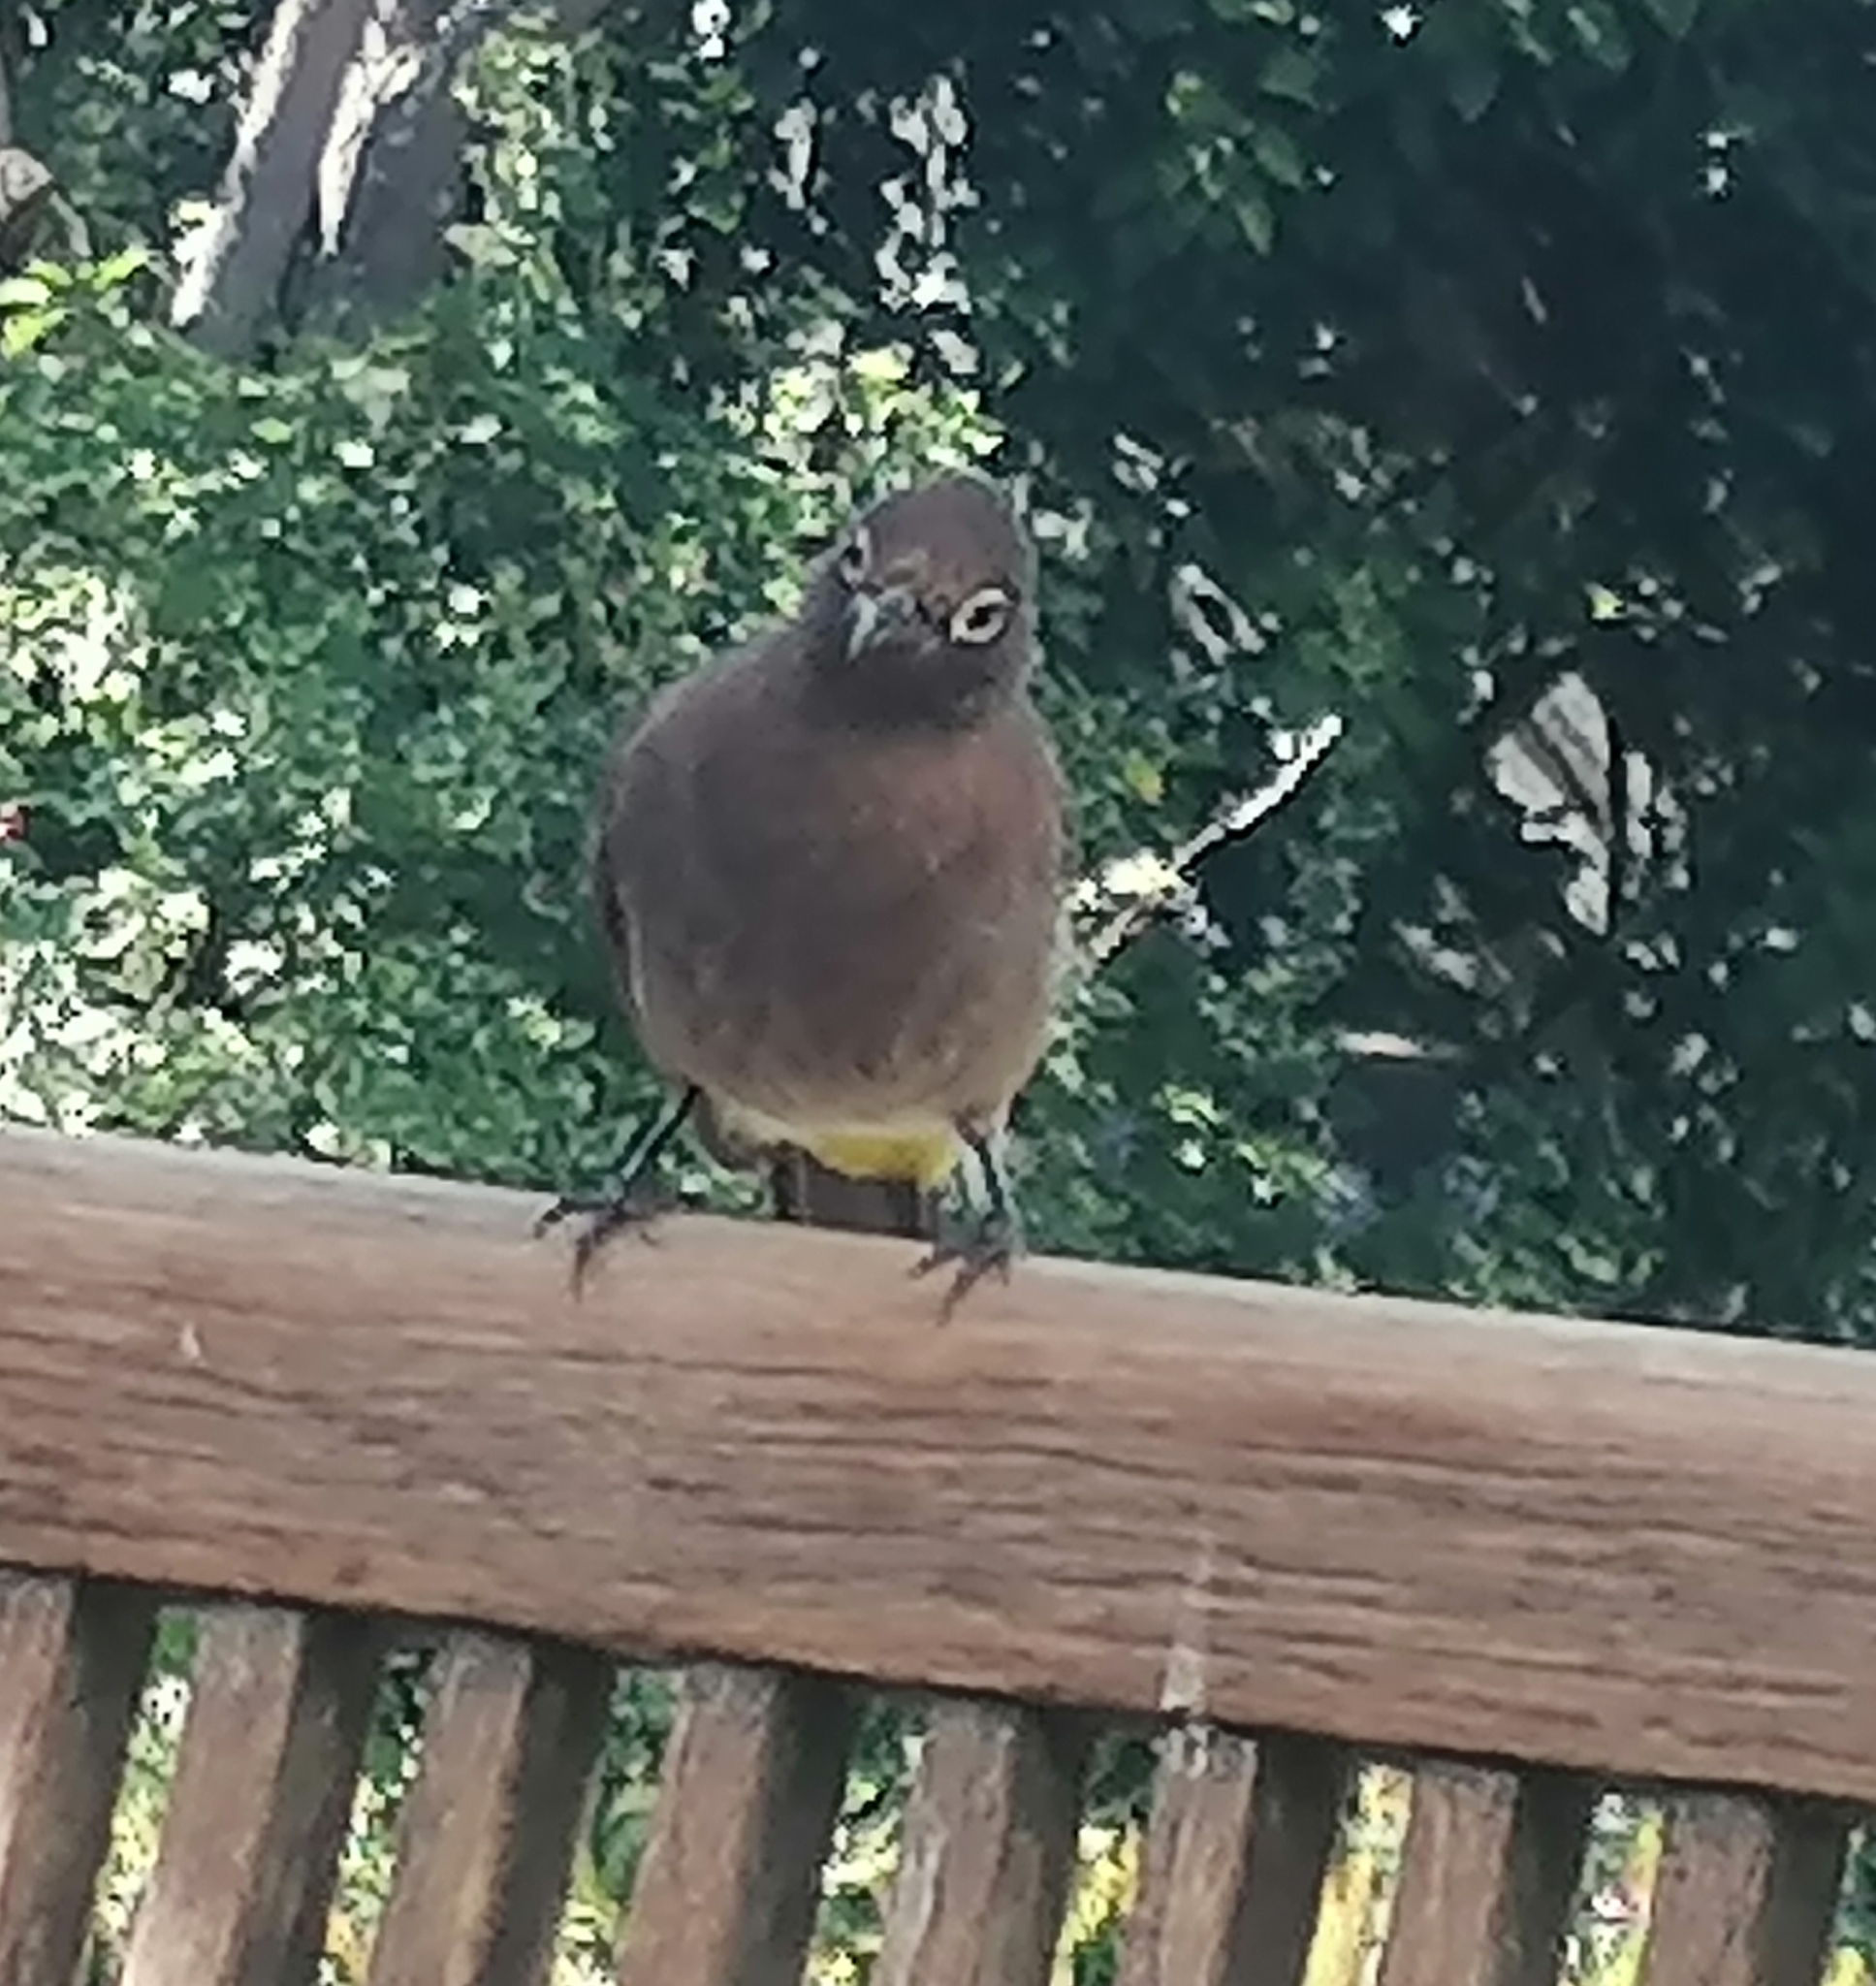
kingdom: Animalia
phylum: Chordata
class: Aves
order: Passeriformes
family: Pycnonotidae
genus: Pycnonotus
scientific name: Pycnonotus capensis
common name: Cape bulbul
